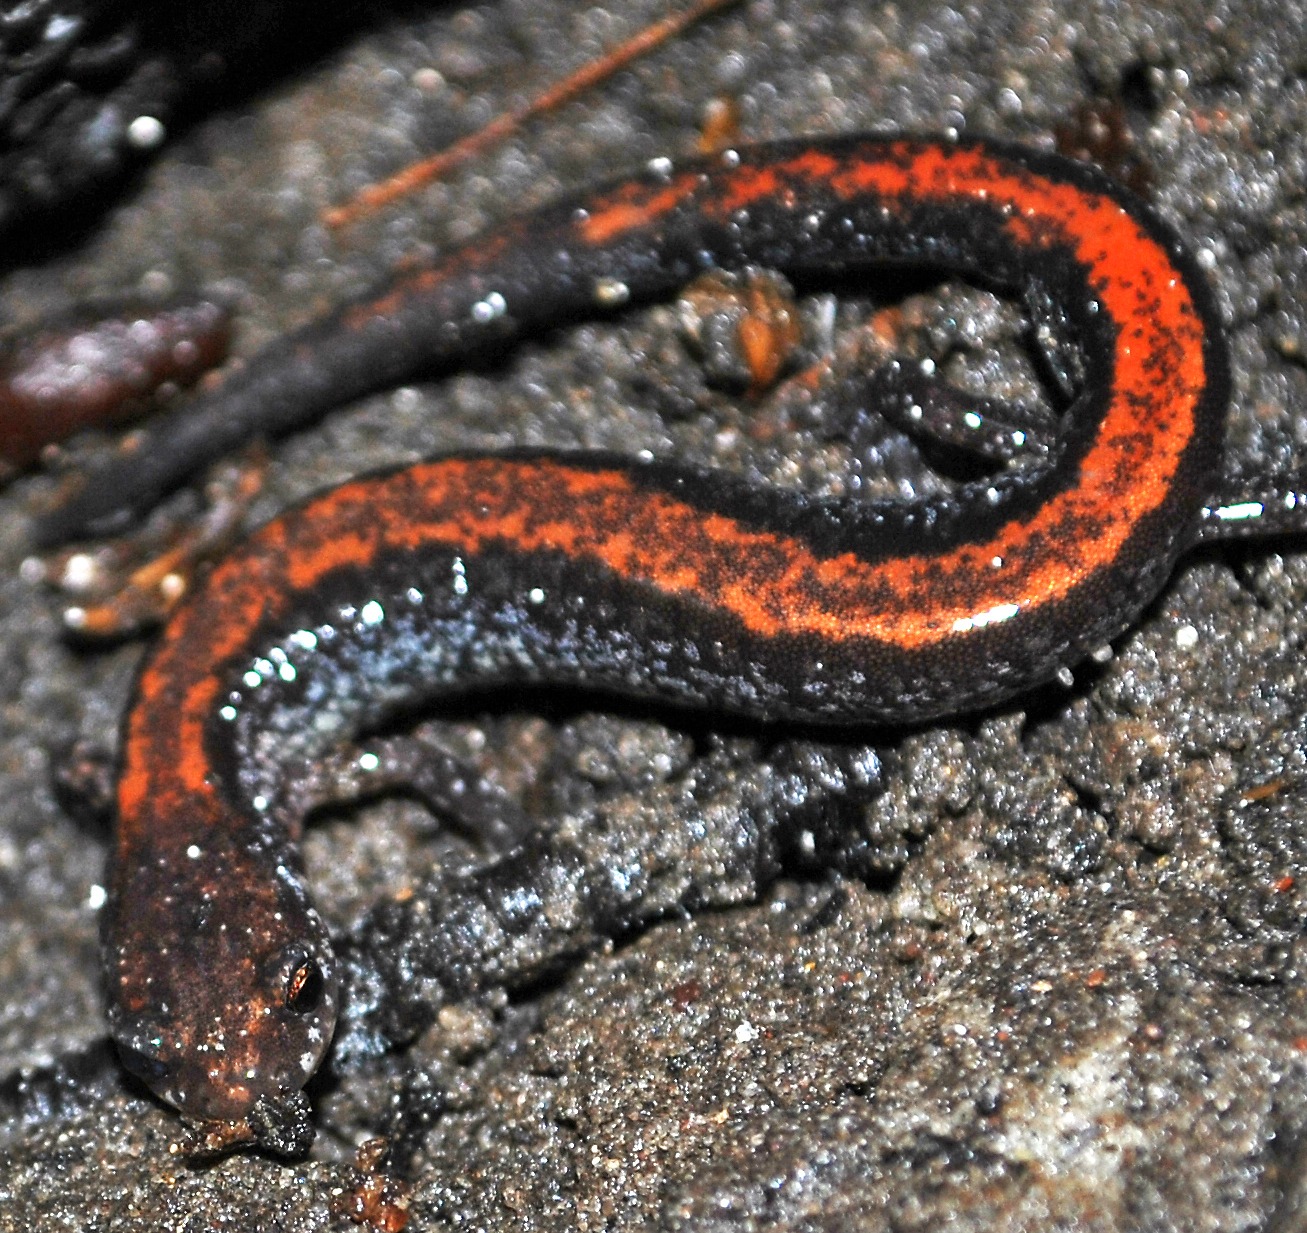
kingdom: Animalia
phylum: Chordata
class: Amphibia
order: Caudata
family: Plethodontidae
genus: Plethodon
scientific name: Plethodon cinereus
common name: Redback salamander
